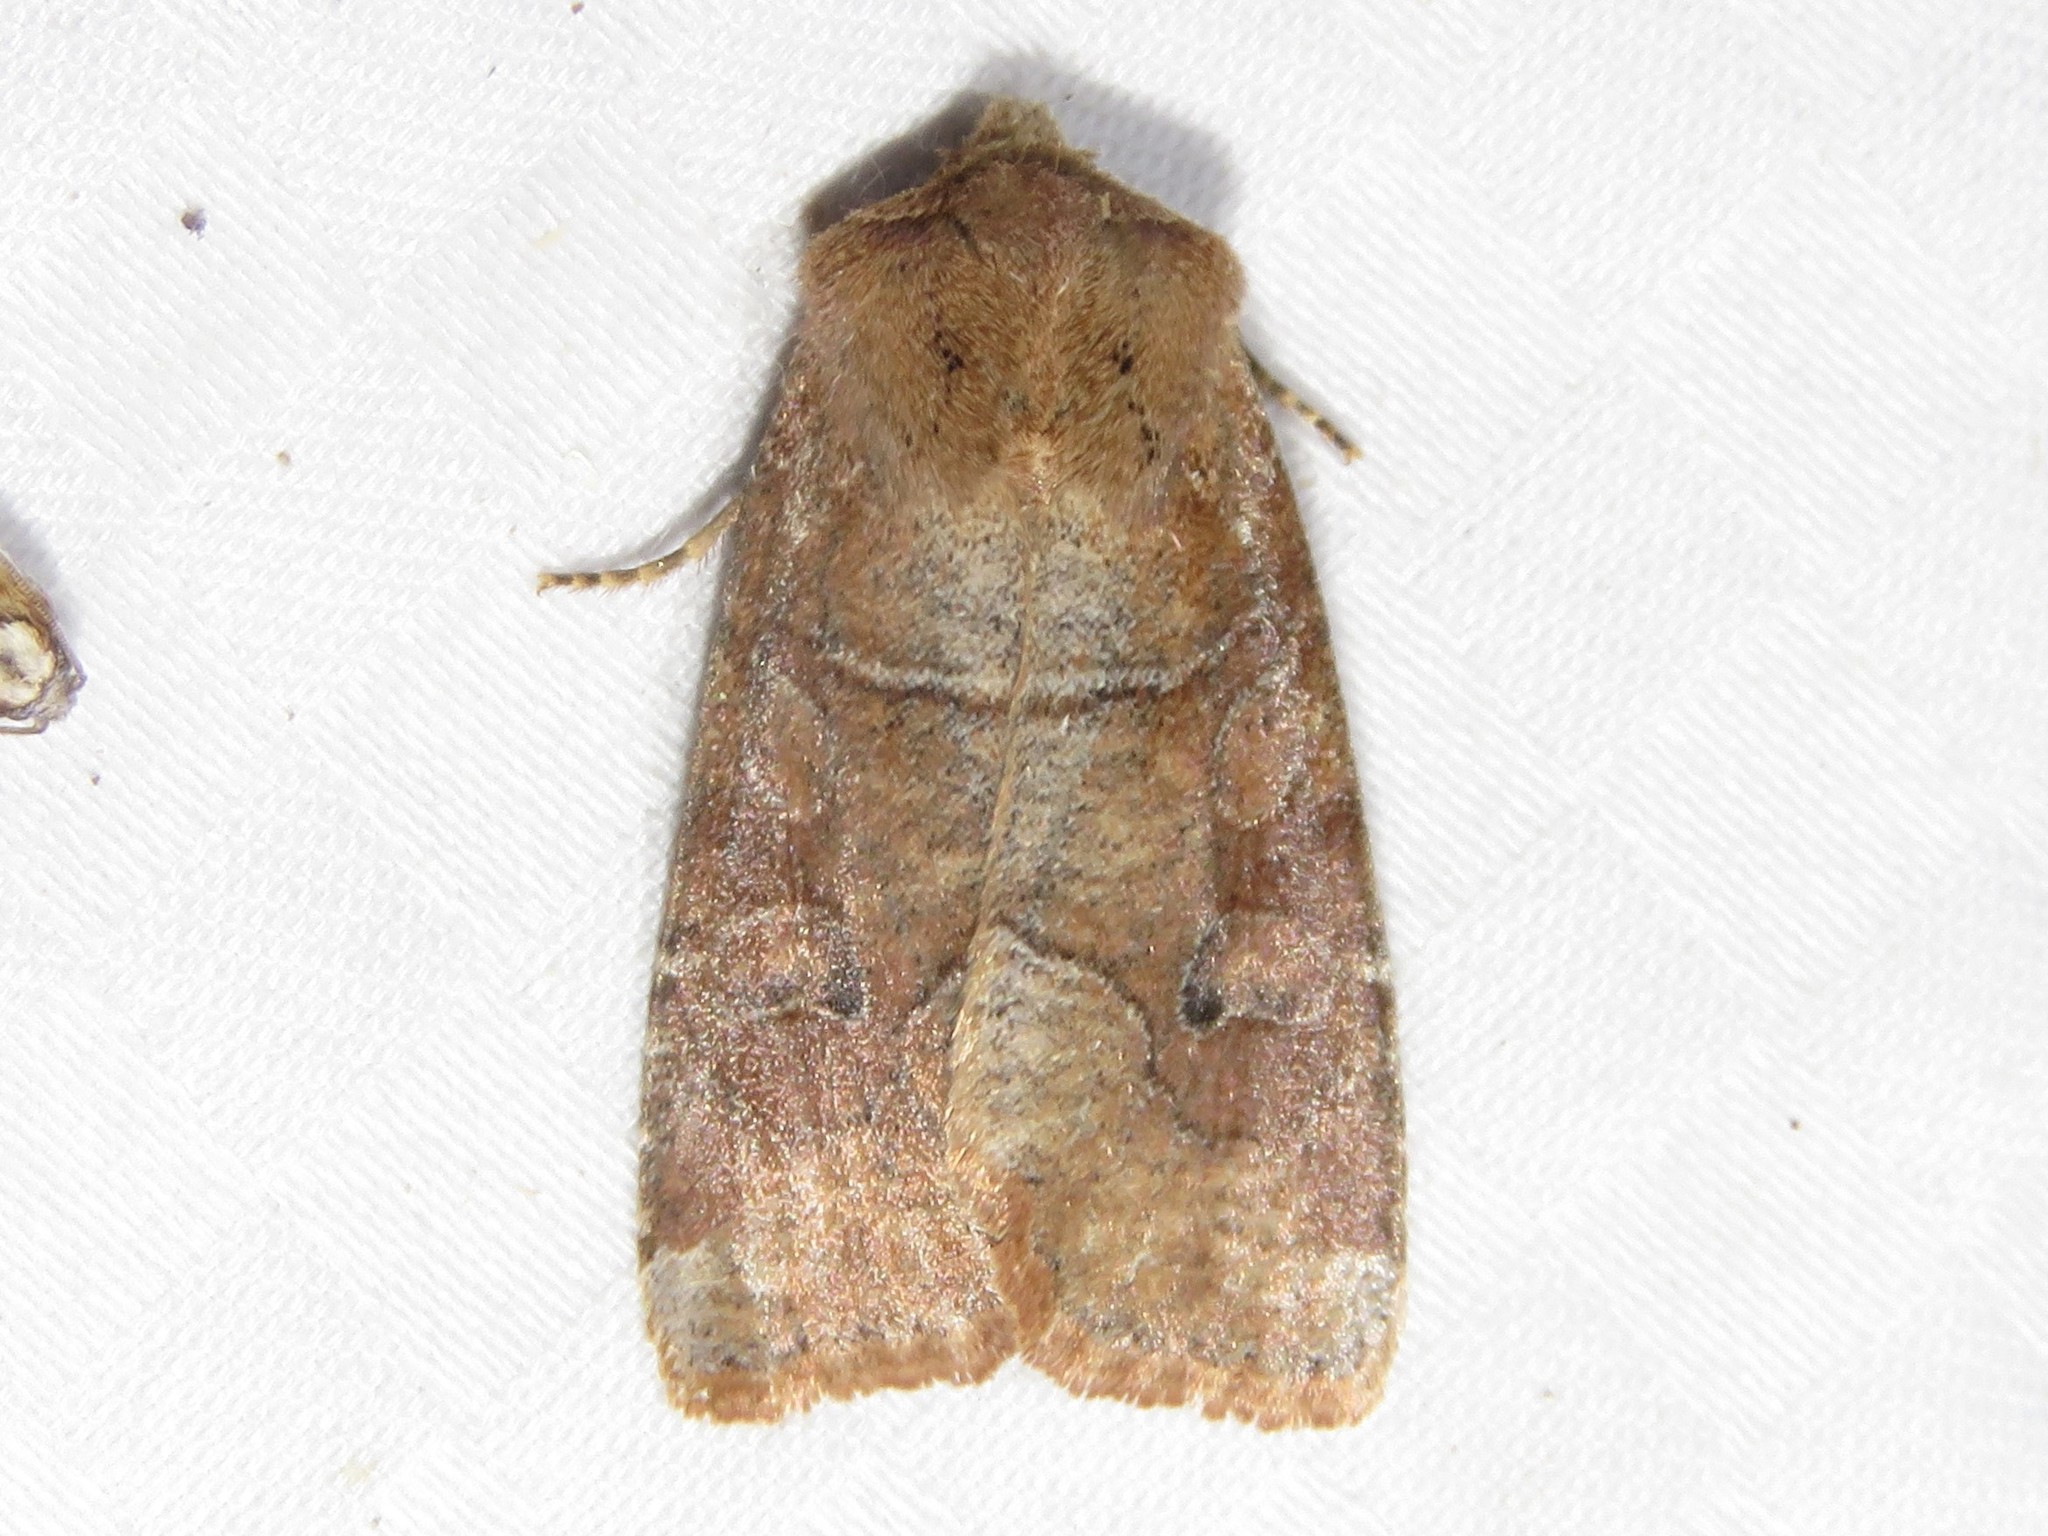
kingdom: Animalia
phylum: Arthropoda
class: Insecta
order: Lepidoptera
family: Noctuidae
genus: Crocigrapha
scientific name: Crocigrapha normani
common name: Norman's quaker
